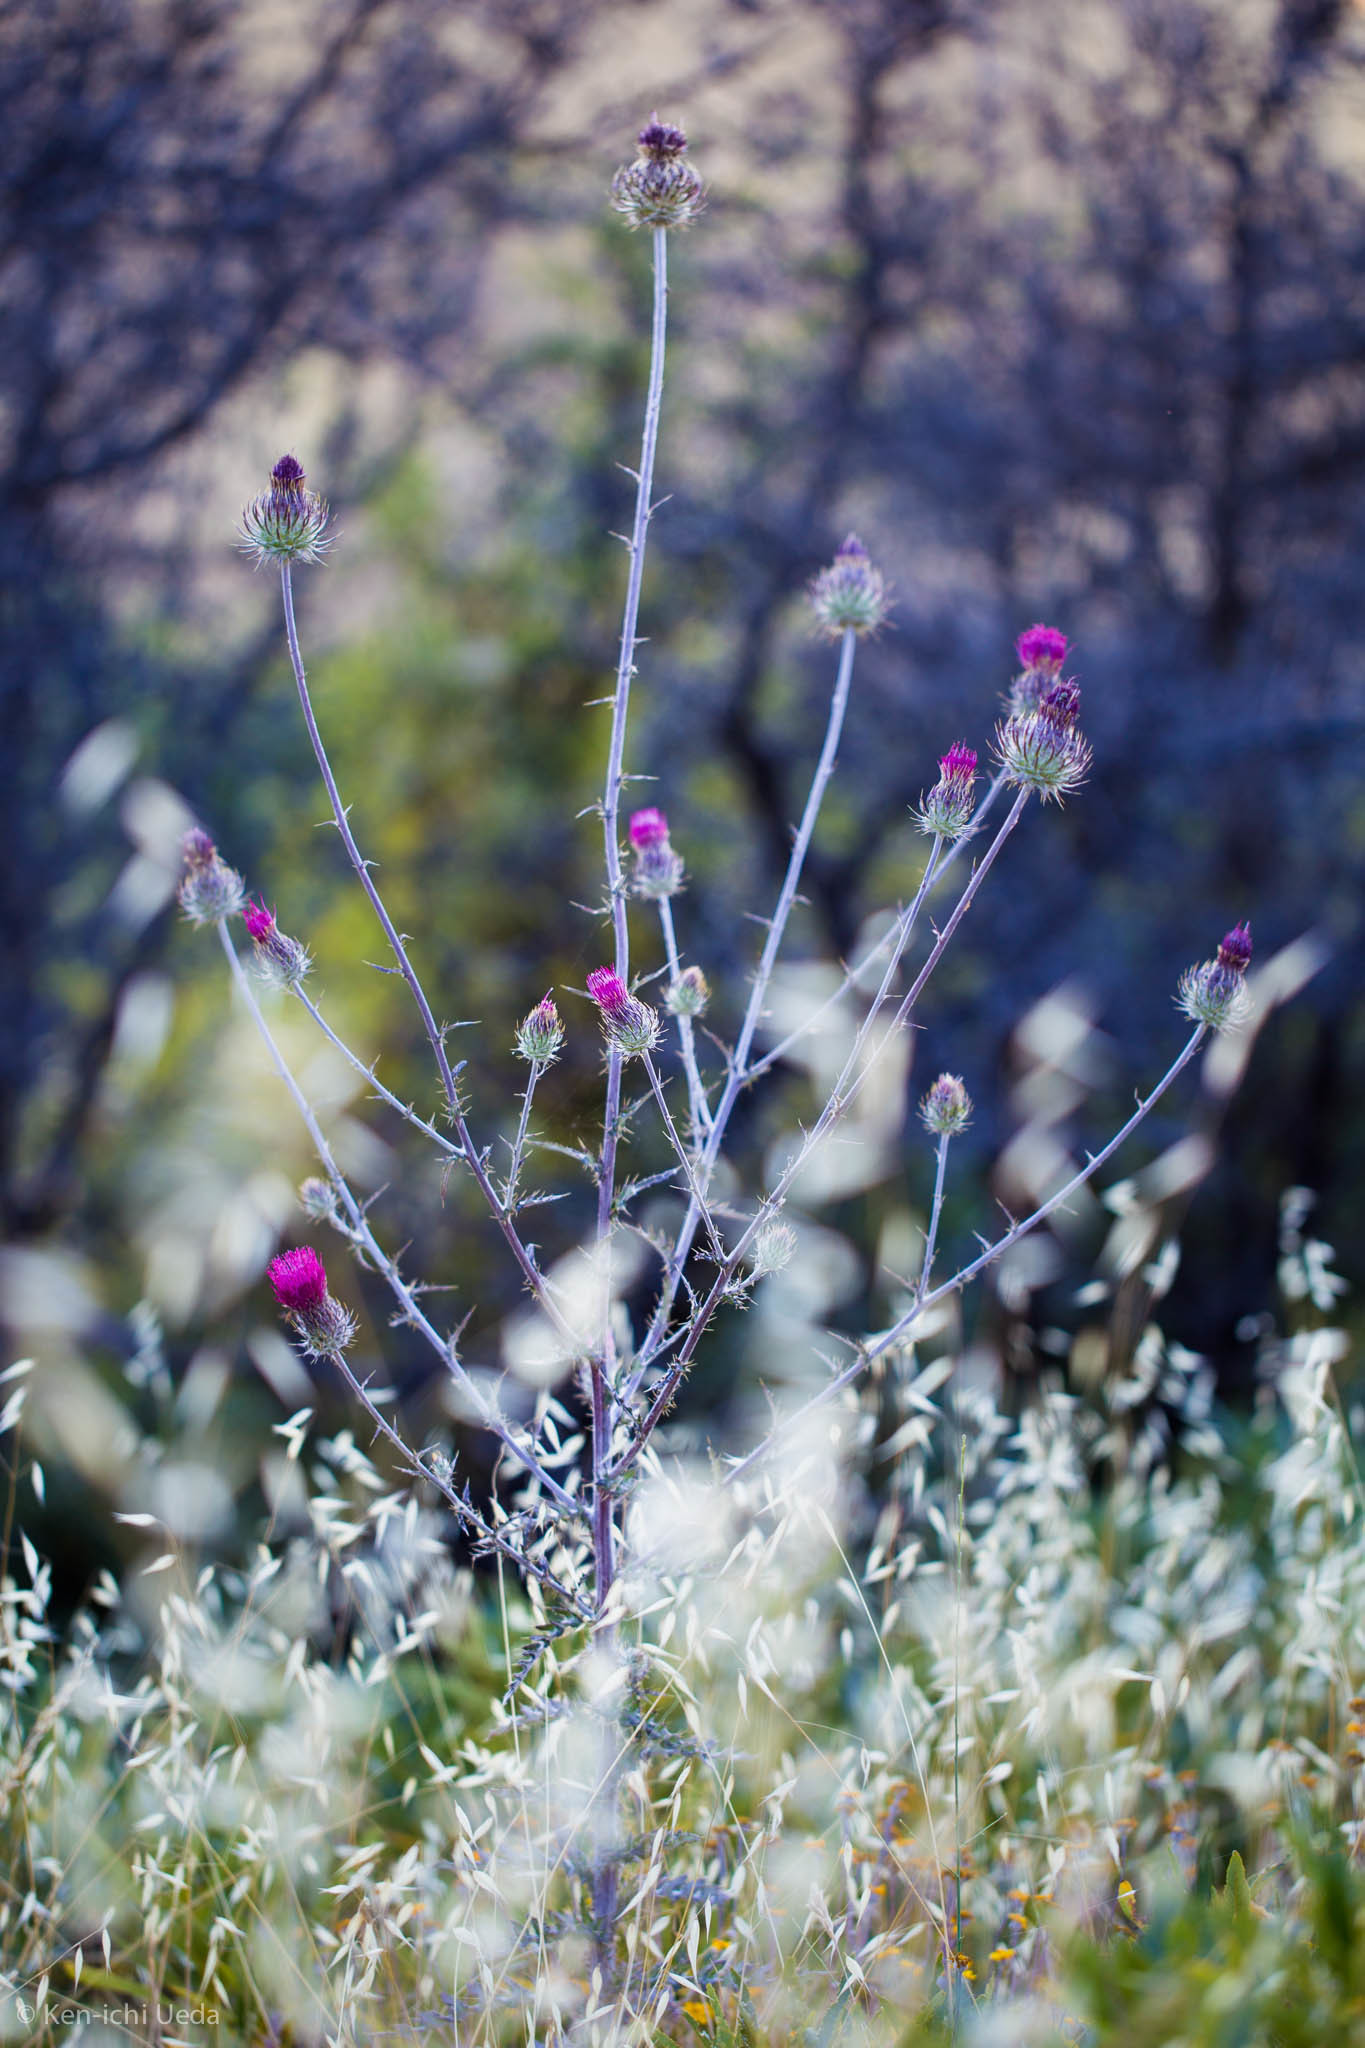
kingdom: Plantae
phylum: Tracheophyta
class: Magnoliopsida
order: Asterales
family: Asteraceae
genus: Cirsium
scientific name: Cirsium occidentale
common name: Western thistle
